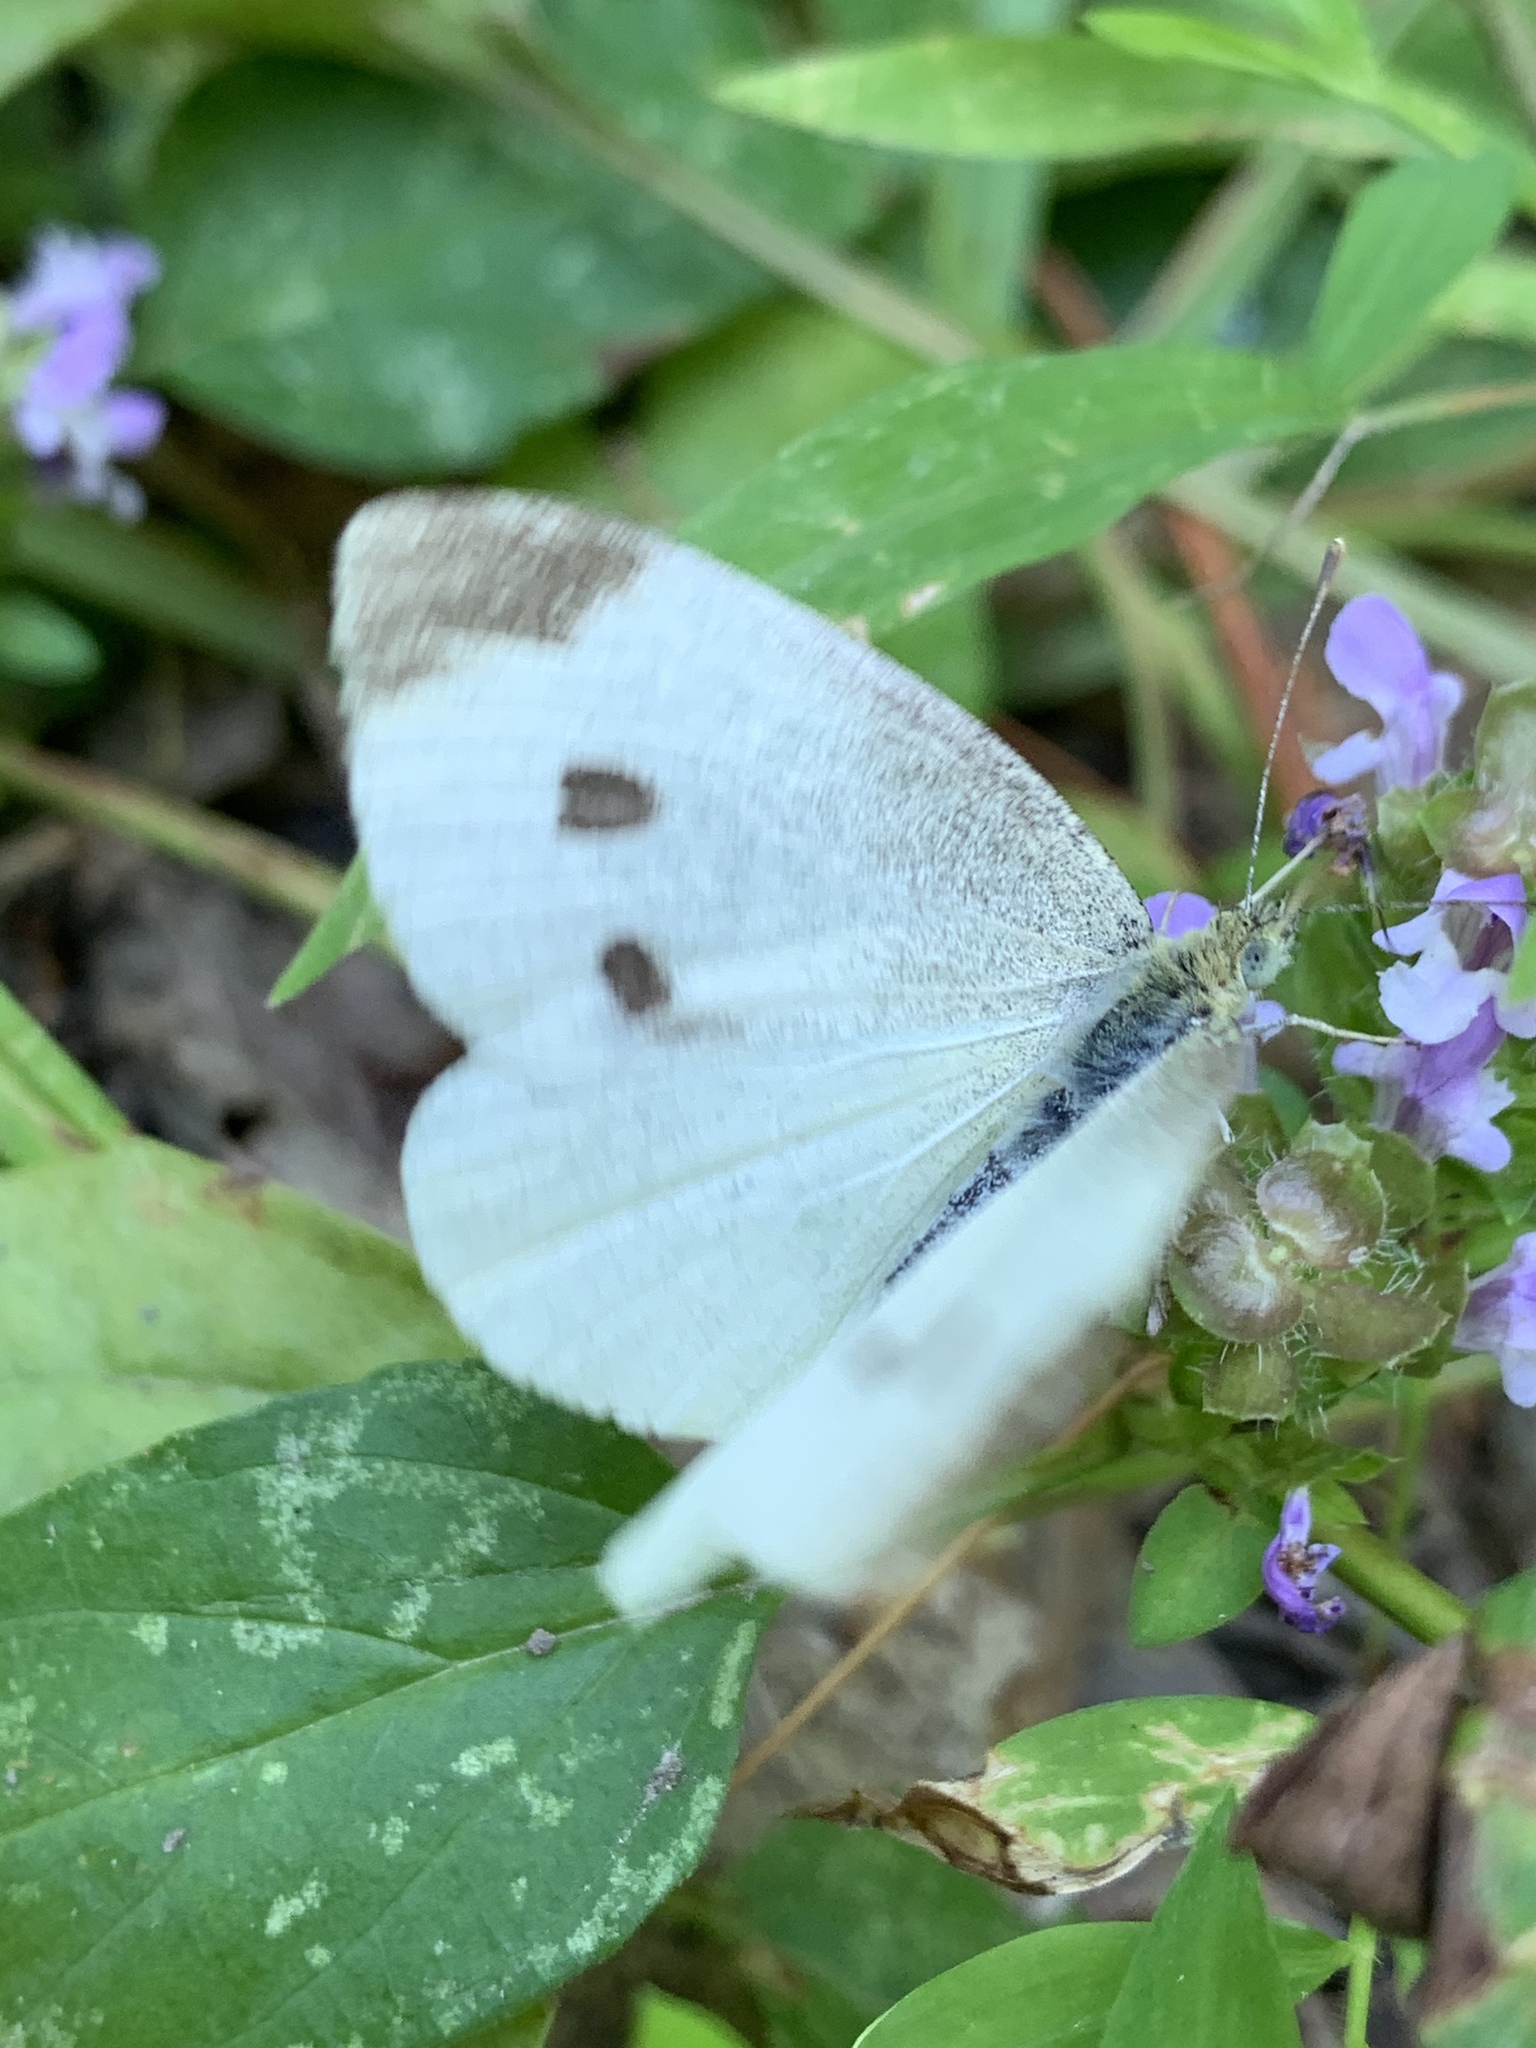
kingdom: Animalia
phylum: Arthropoda
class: Insecta
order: Lepidoptera
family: Pieridae
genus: Pieris
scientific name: Pieris rapae
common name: Small white
